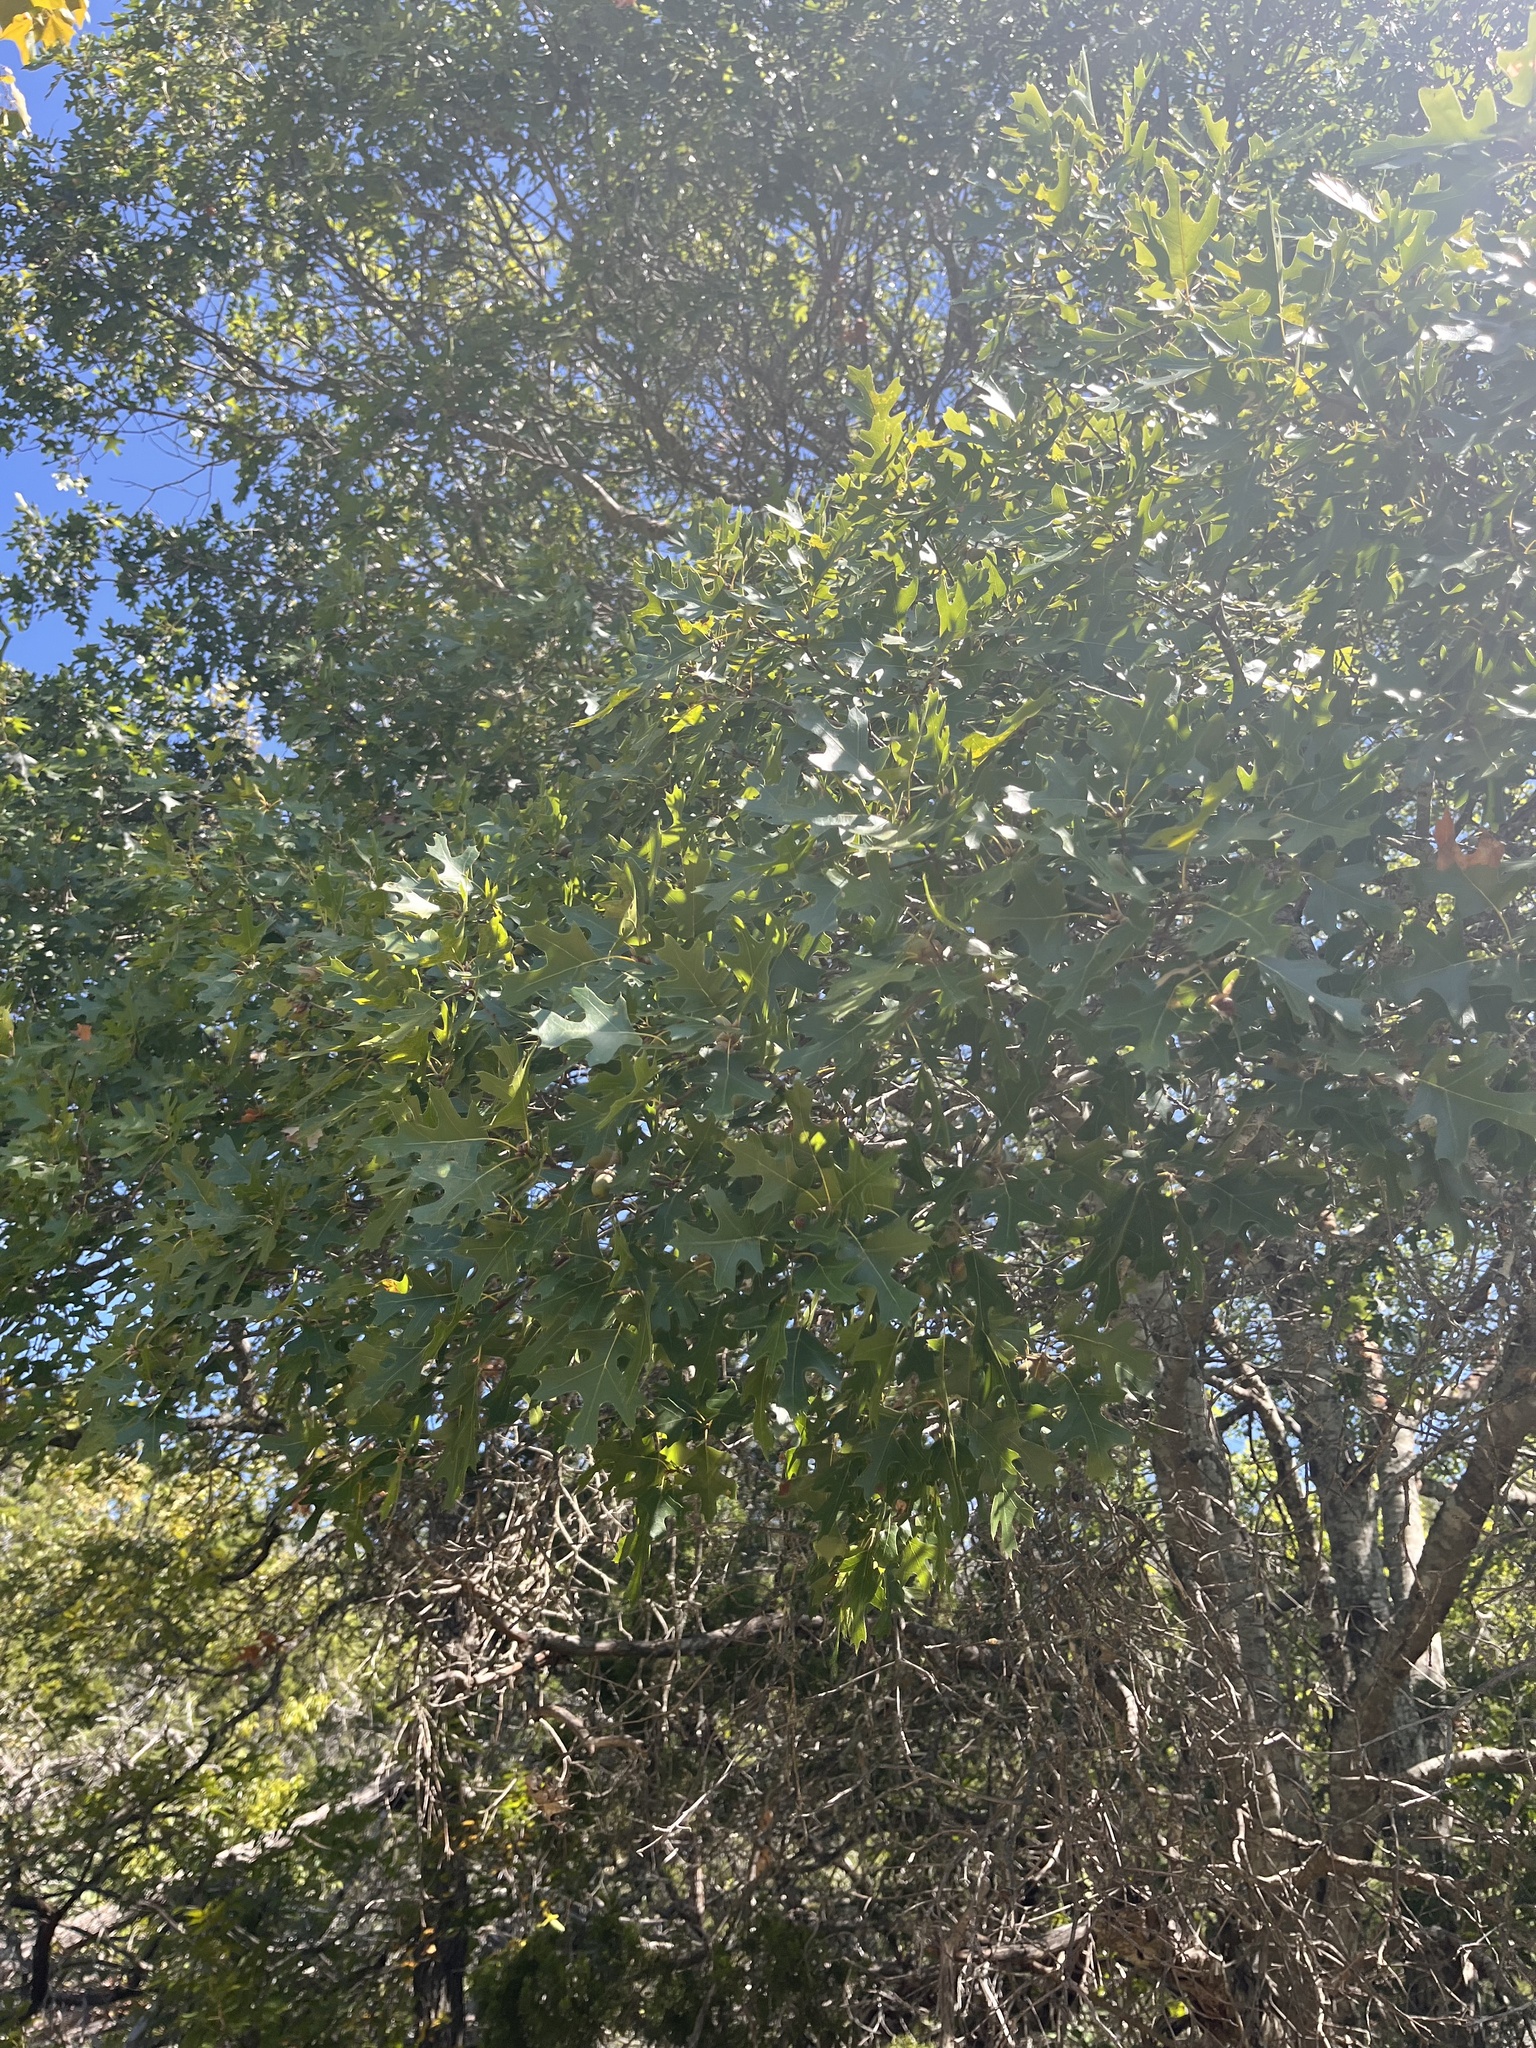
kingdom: Plantae
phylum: Tracheophyta
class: Magnoliopsida
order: Fagales
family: Fagaceae
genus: Quercus
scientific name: Quercus buckleyi
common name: Buckley oak
